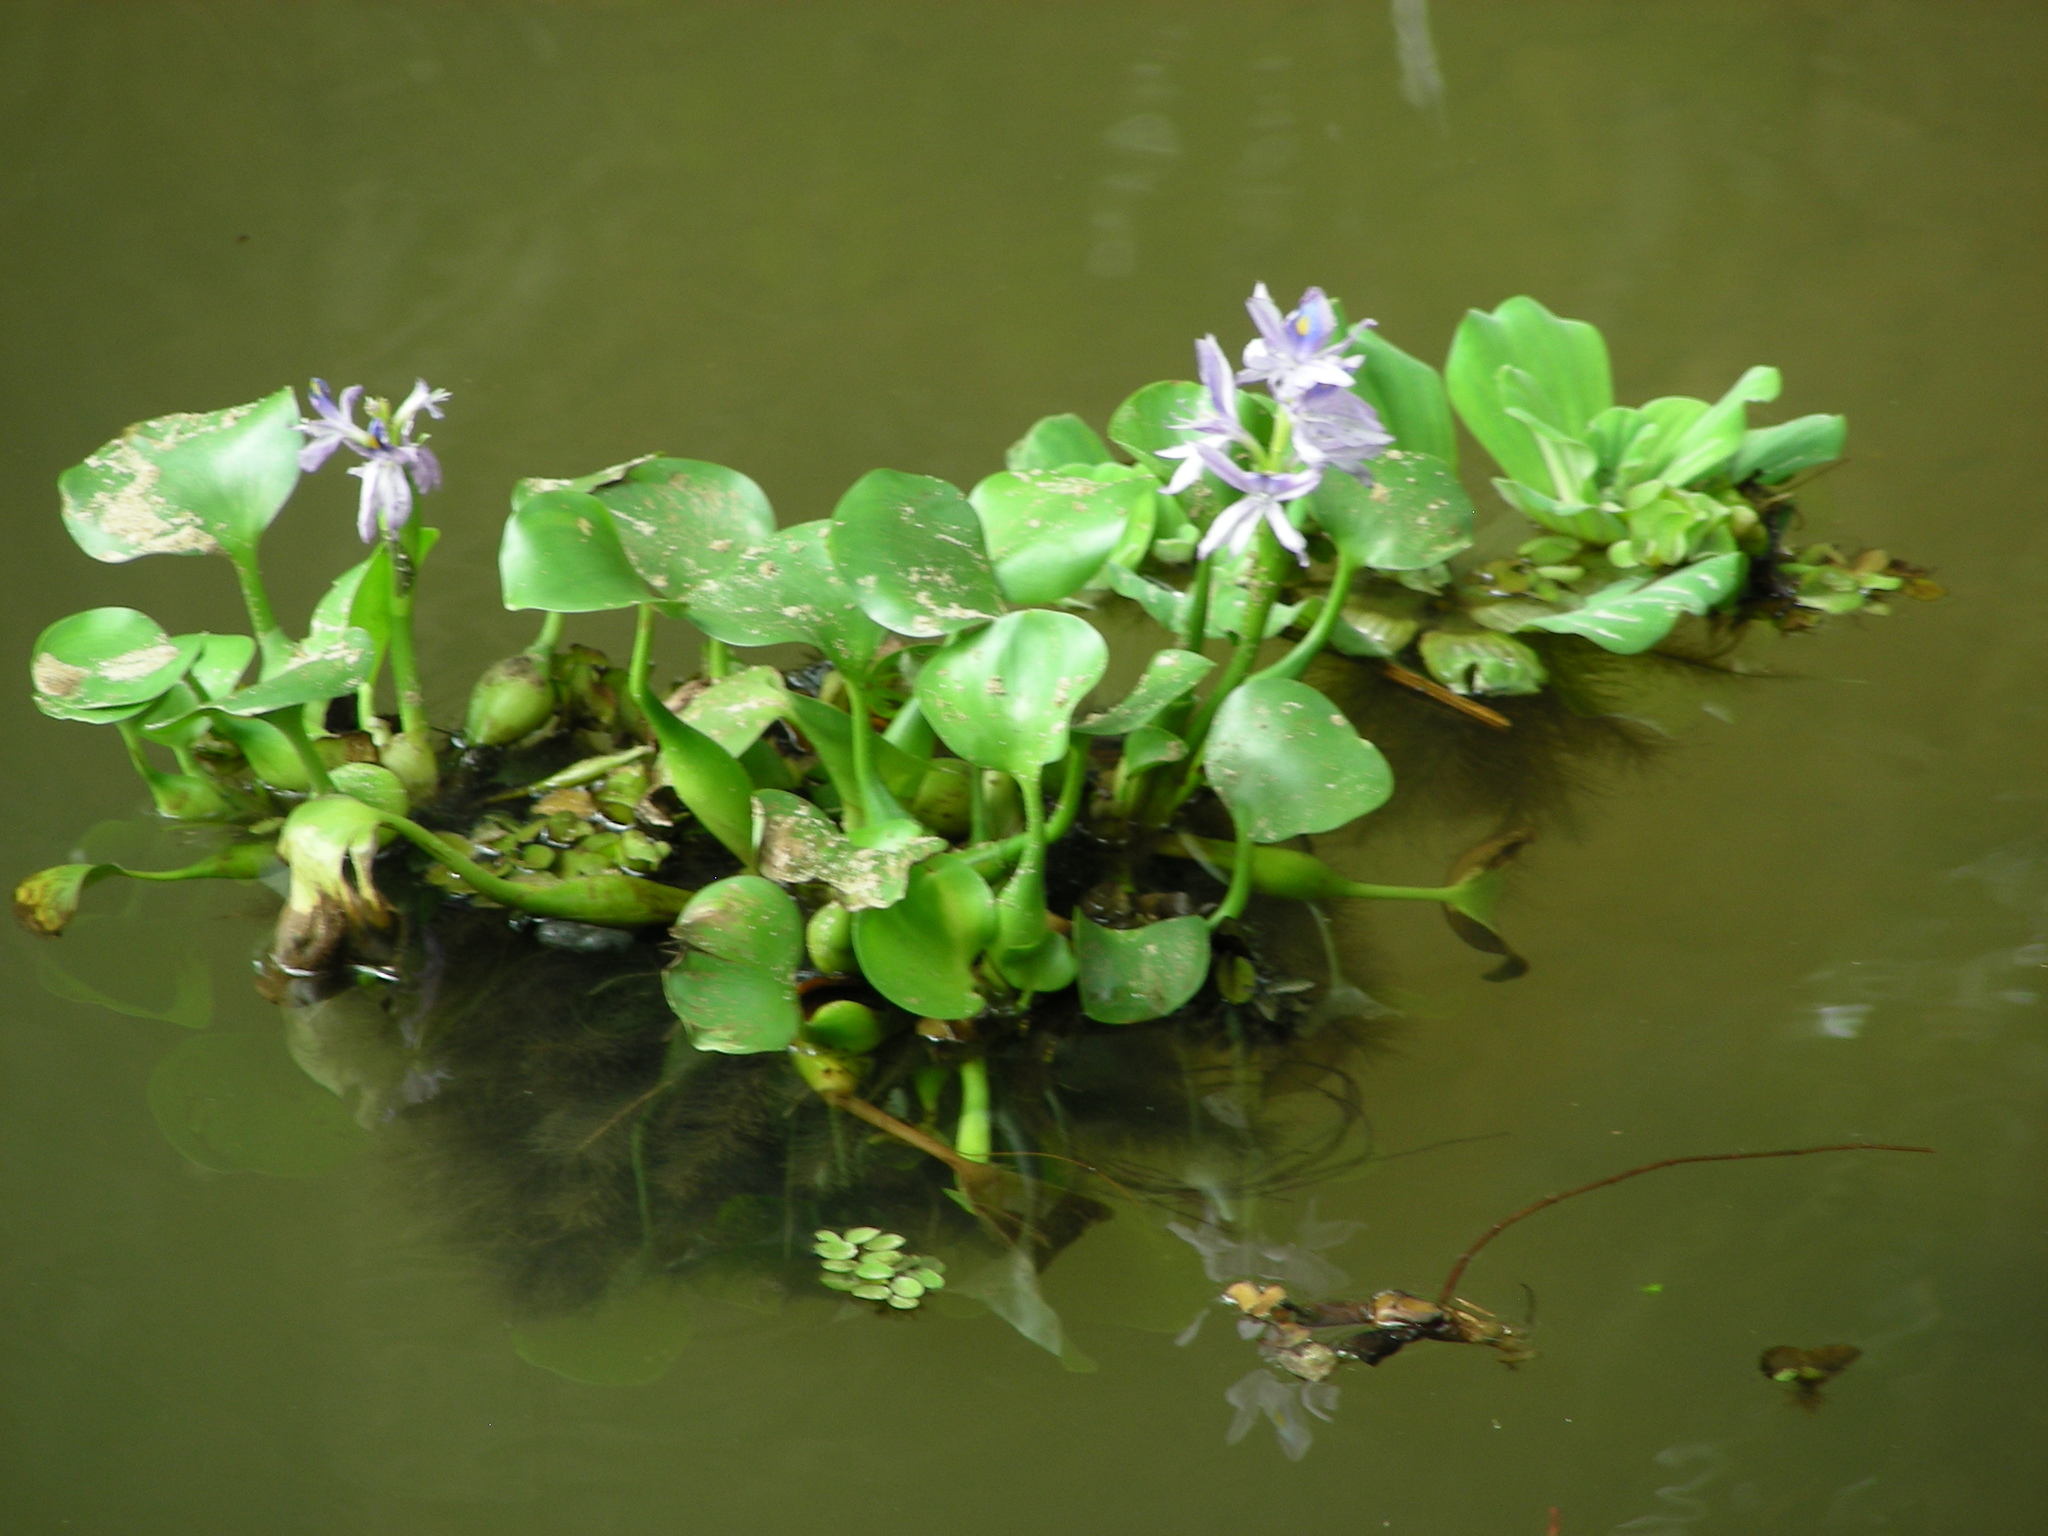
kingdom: Plantae
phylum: Tracheophyta
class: Liliopsida
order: Commelinales
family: Pontederiaceae
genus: Pontederia
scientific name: Pontederia crassipes
